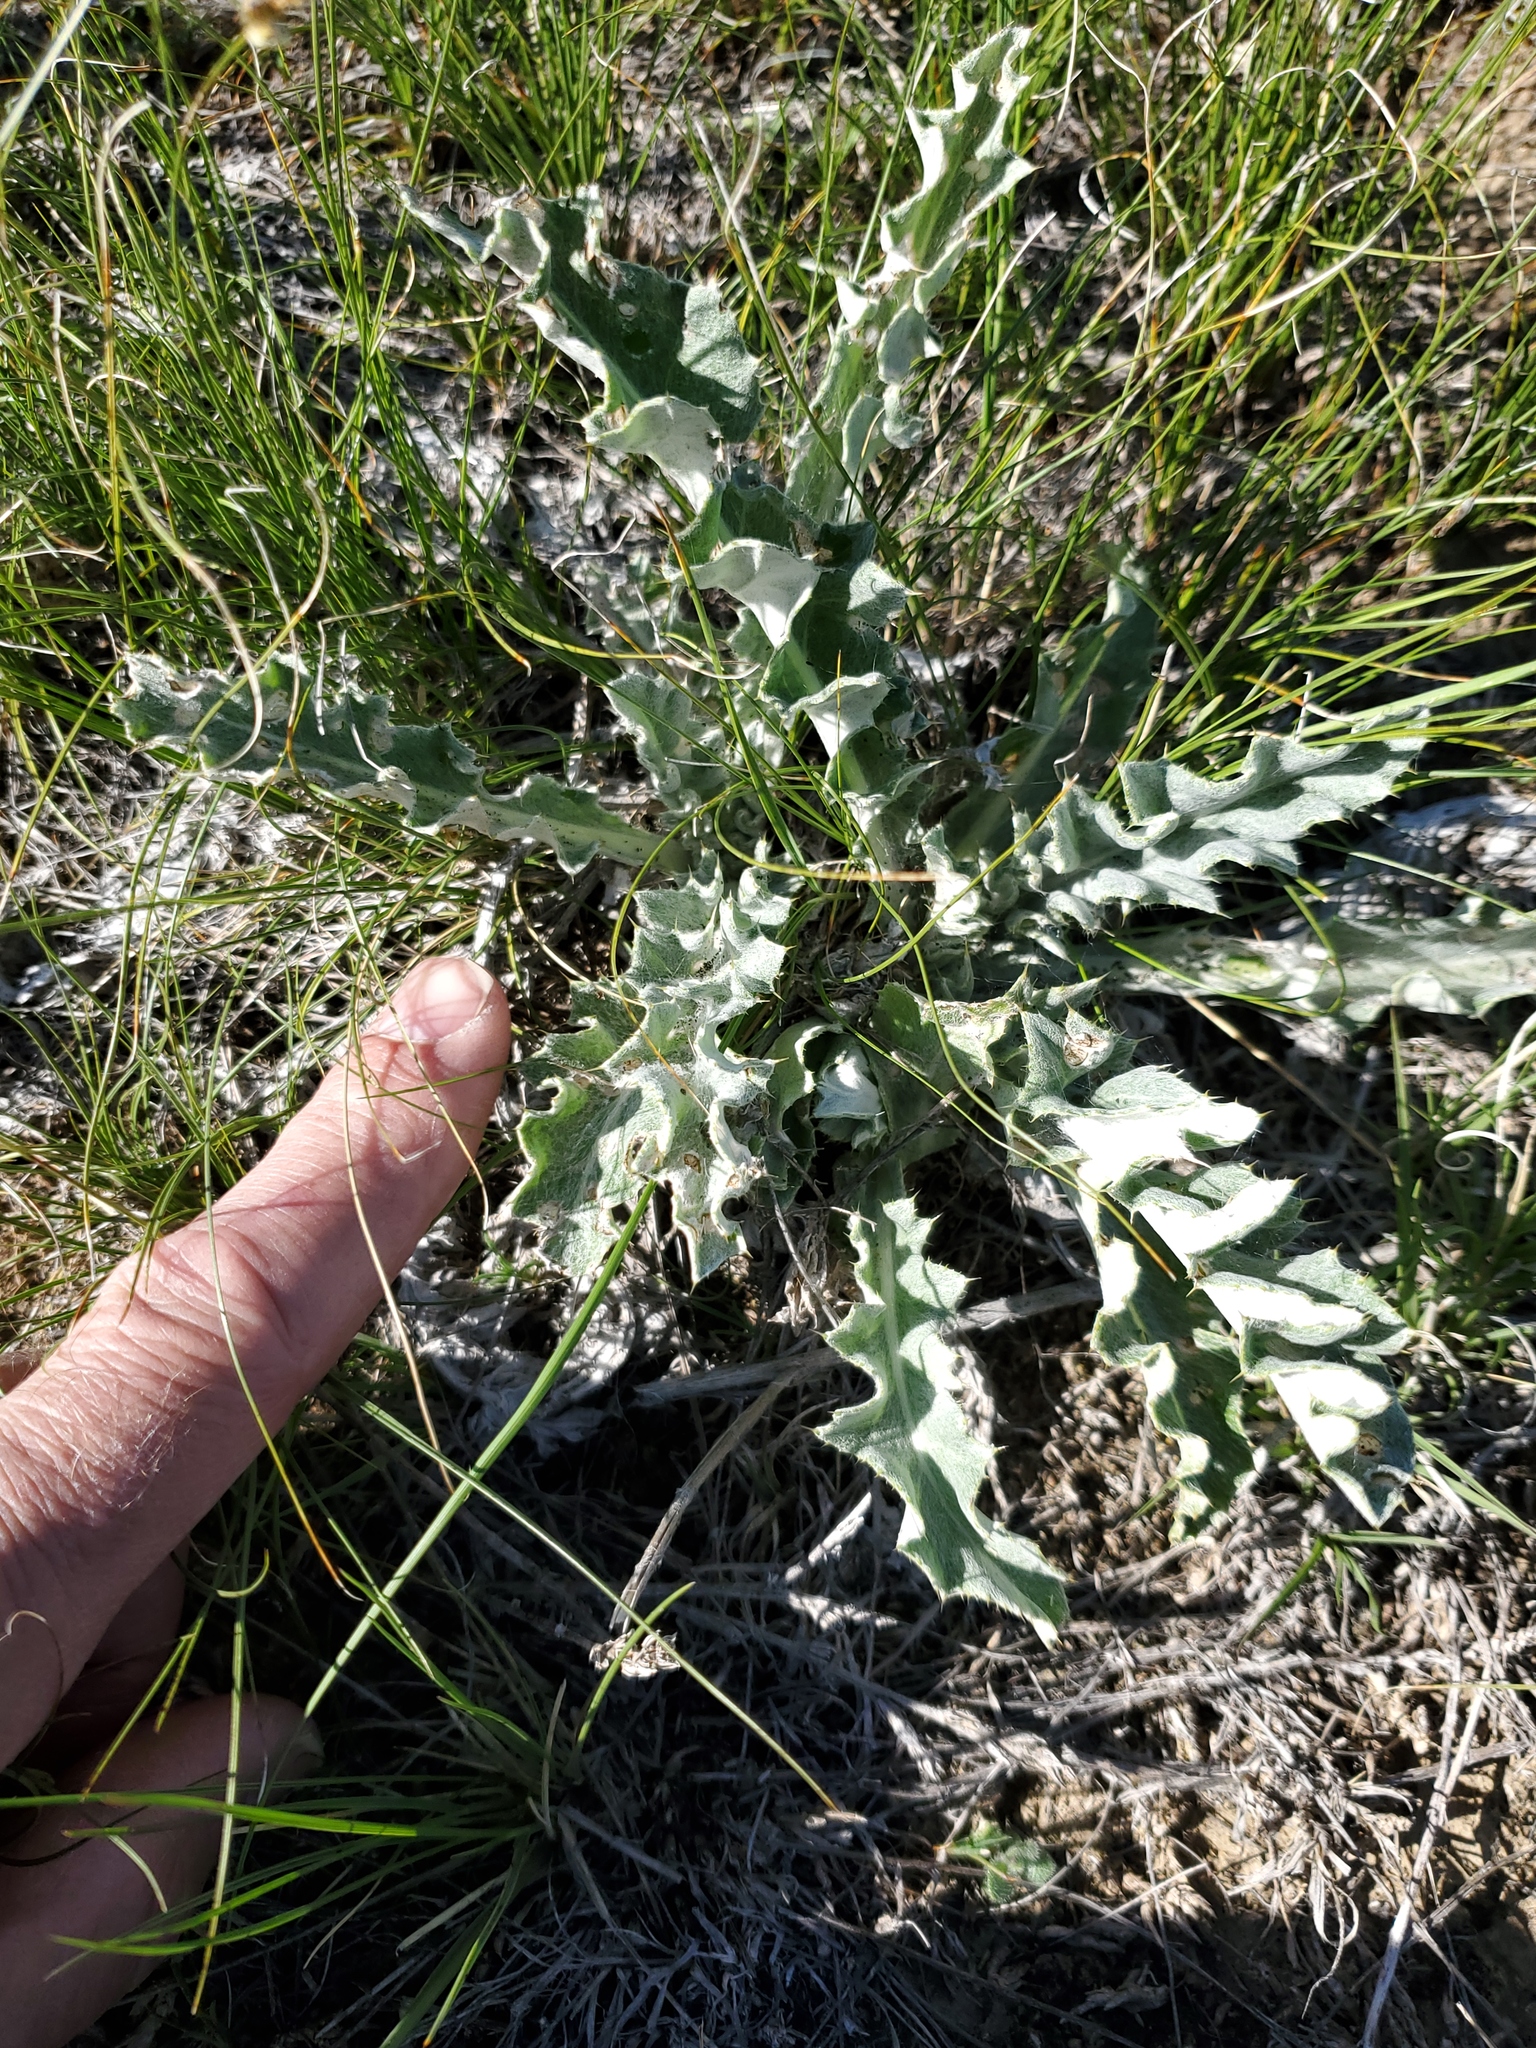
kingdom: Plantae
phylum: Tracheophyta
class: Magnoliopsida
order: Asterales
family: Asteraceae
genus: Cirsium
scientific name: Cirsium undulatum
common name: Pasture thistle
